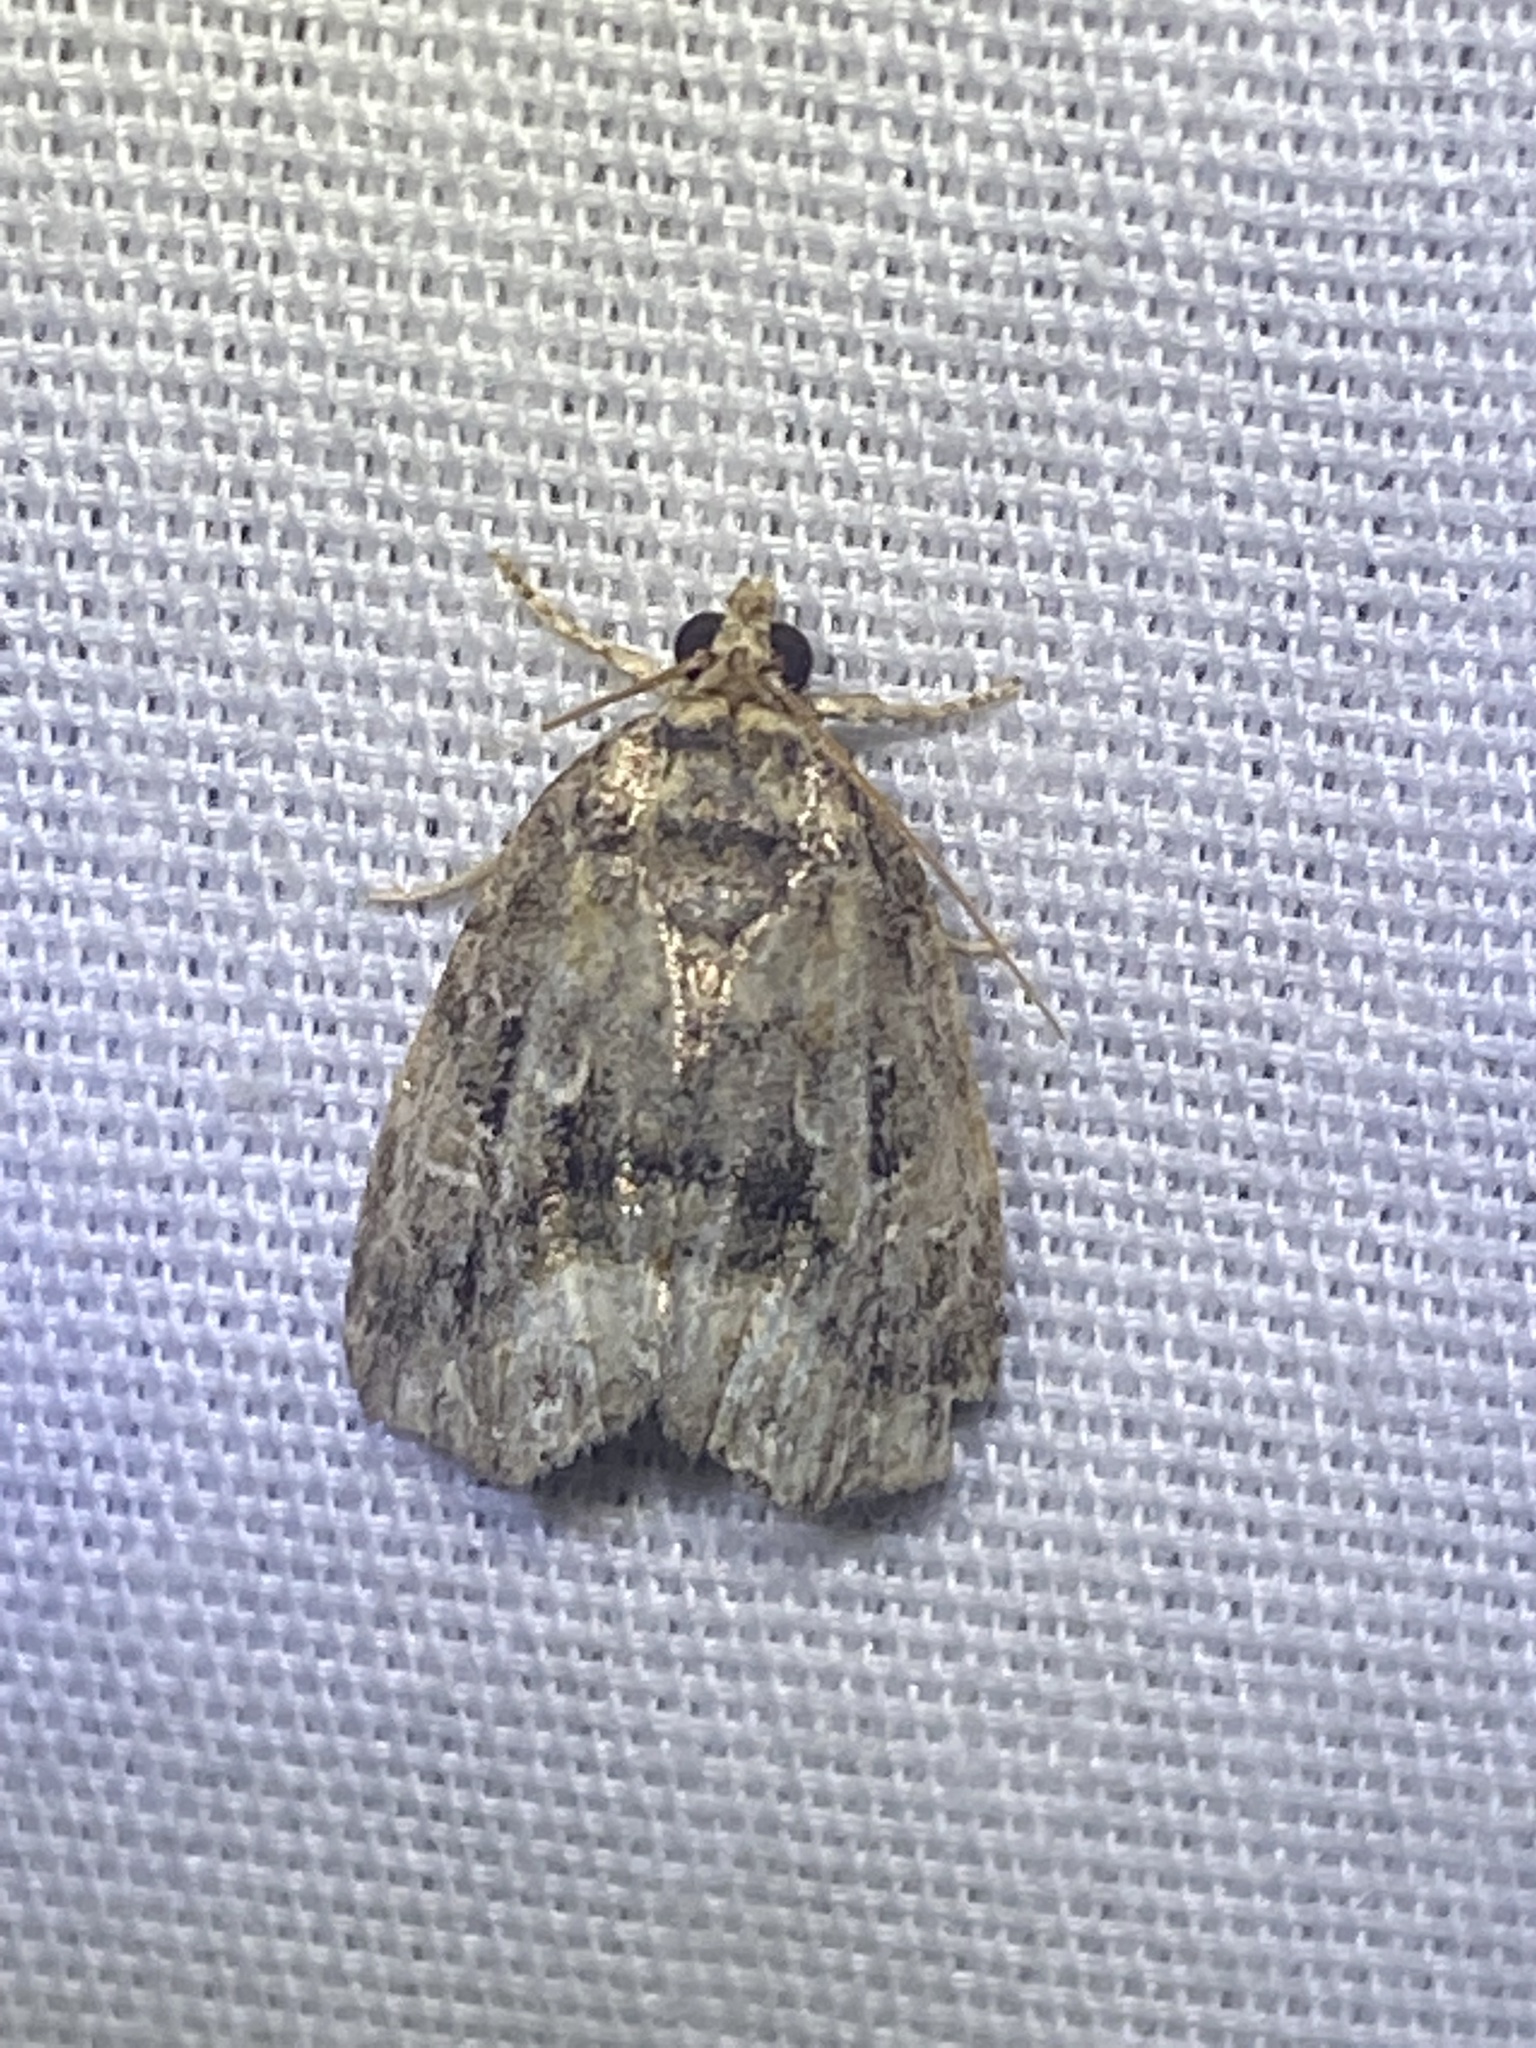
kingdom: Animalia
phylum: Arthropoda
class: Insecta
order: Lepidoptera
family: Noctuidae
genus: Protodeltote
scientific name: Protodeltote muscosula
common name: Large mossy glyph
